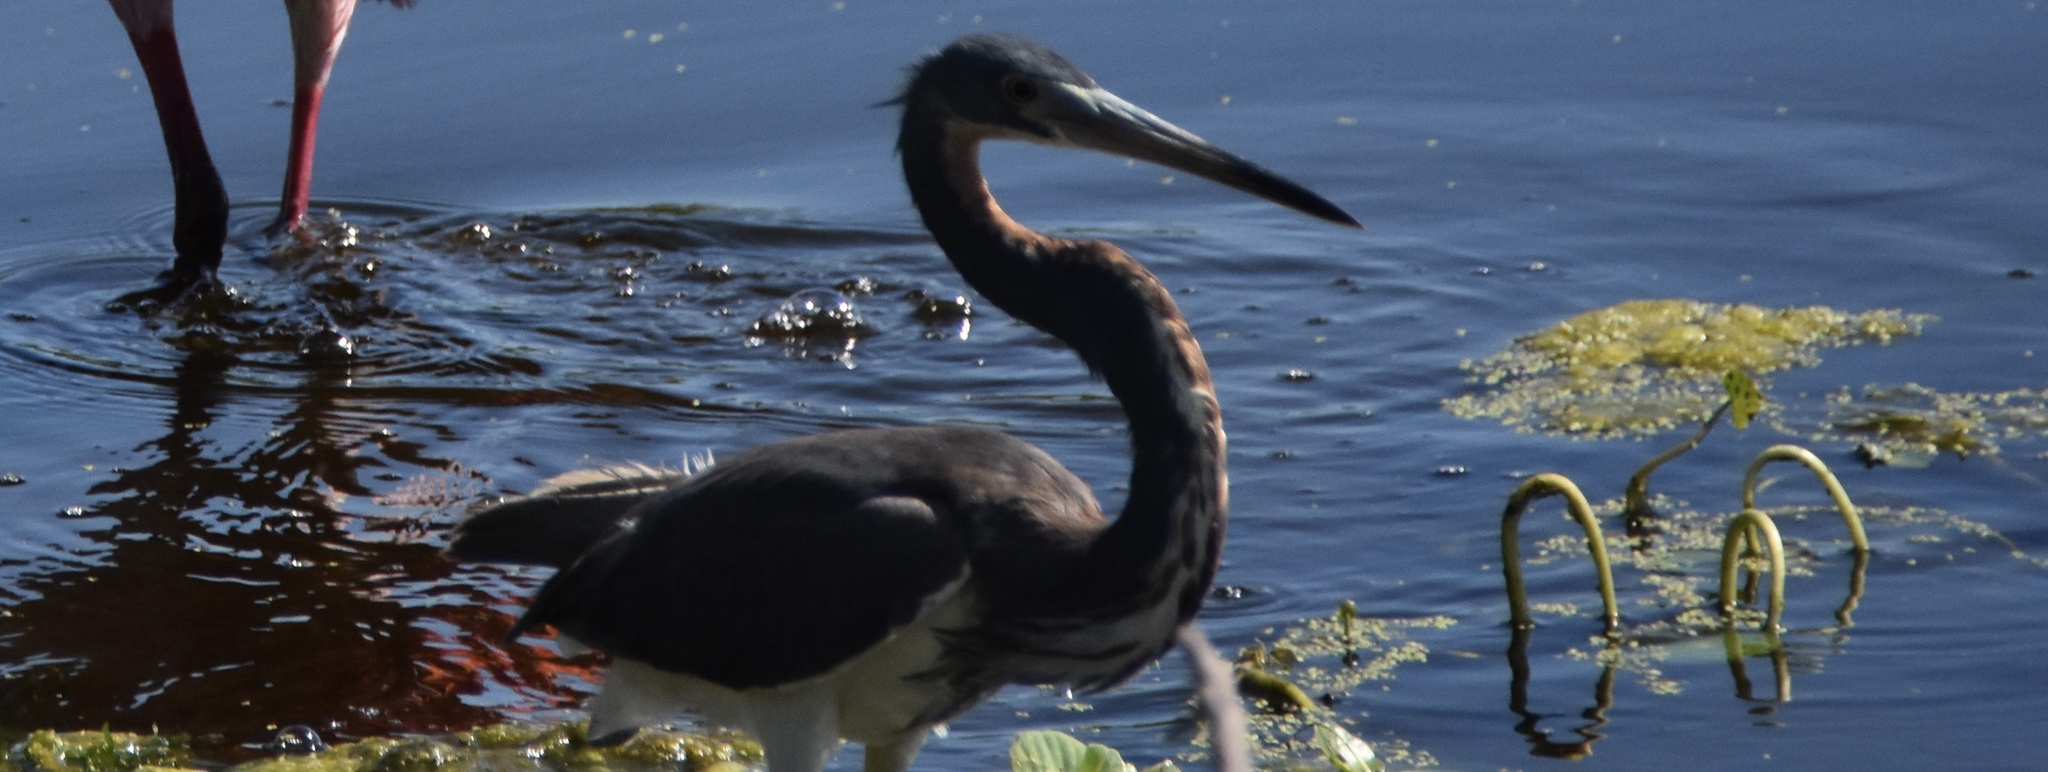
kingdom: Animalia
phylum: Chordata
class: Aves
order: Pelecaniformes
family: Ardeidae
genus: Egretta
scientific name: Egretta tricolor
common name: Tricolored heron
